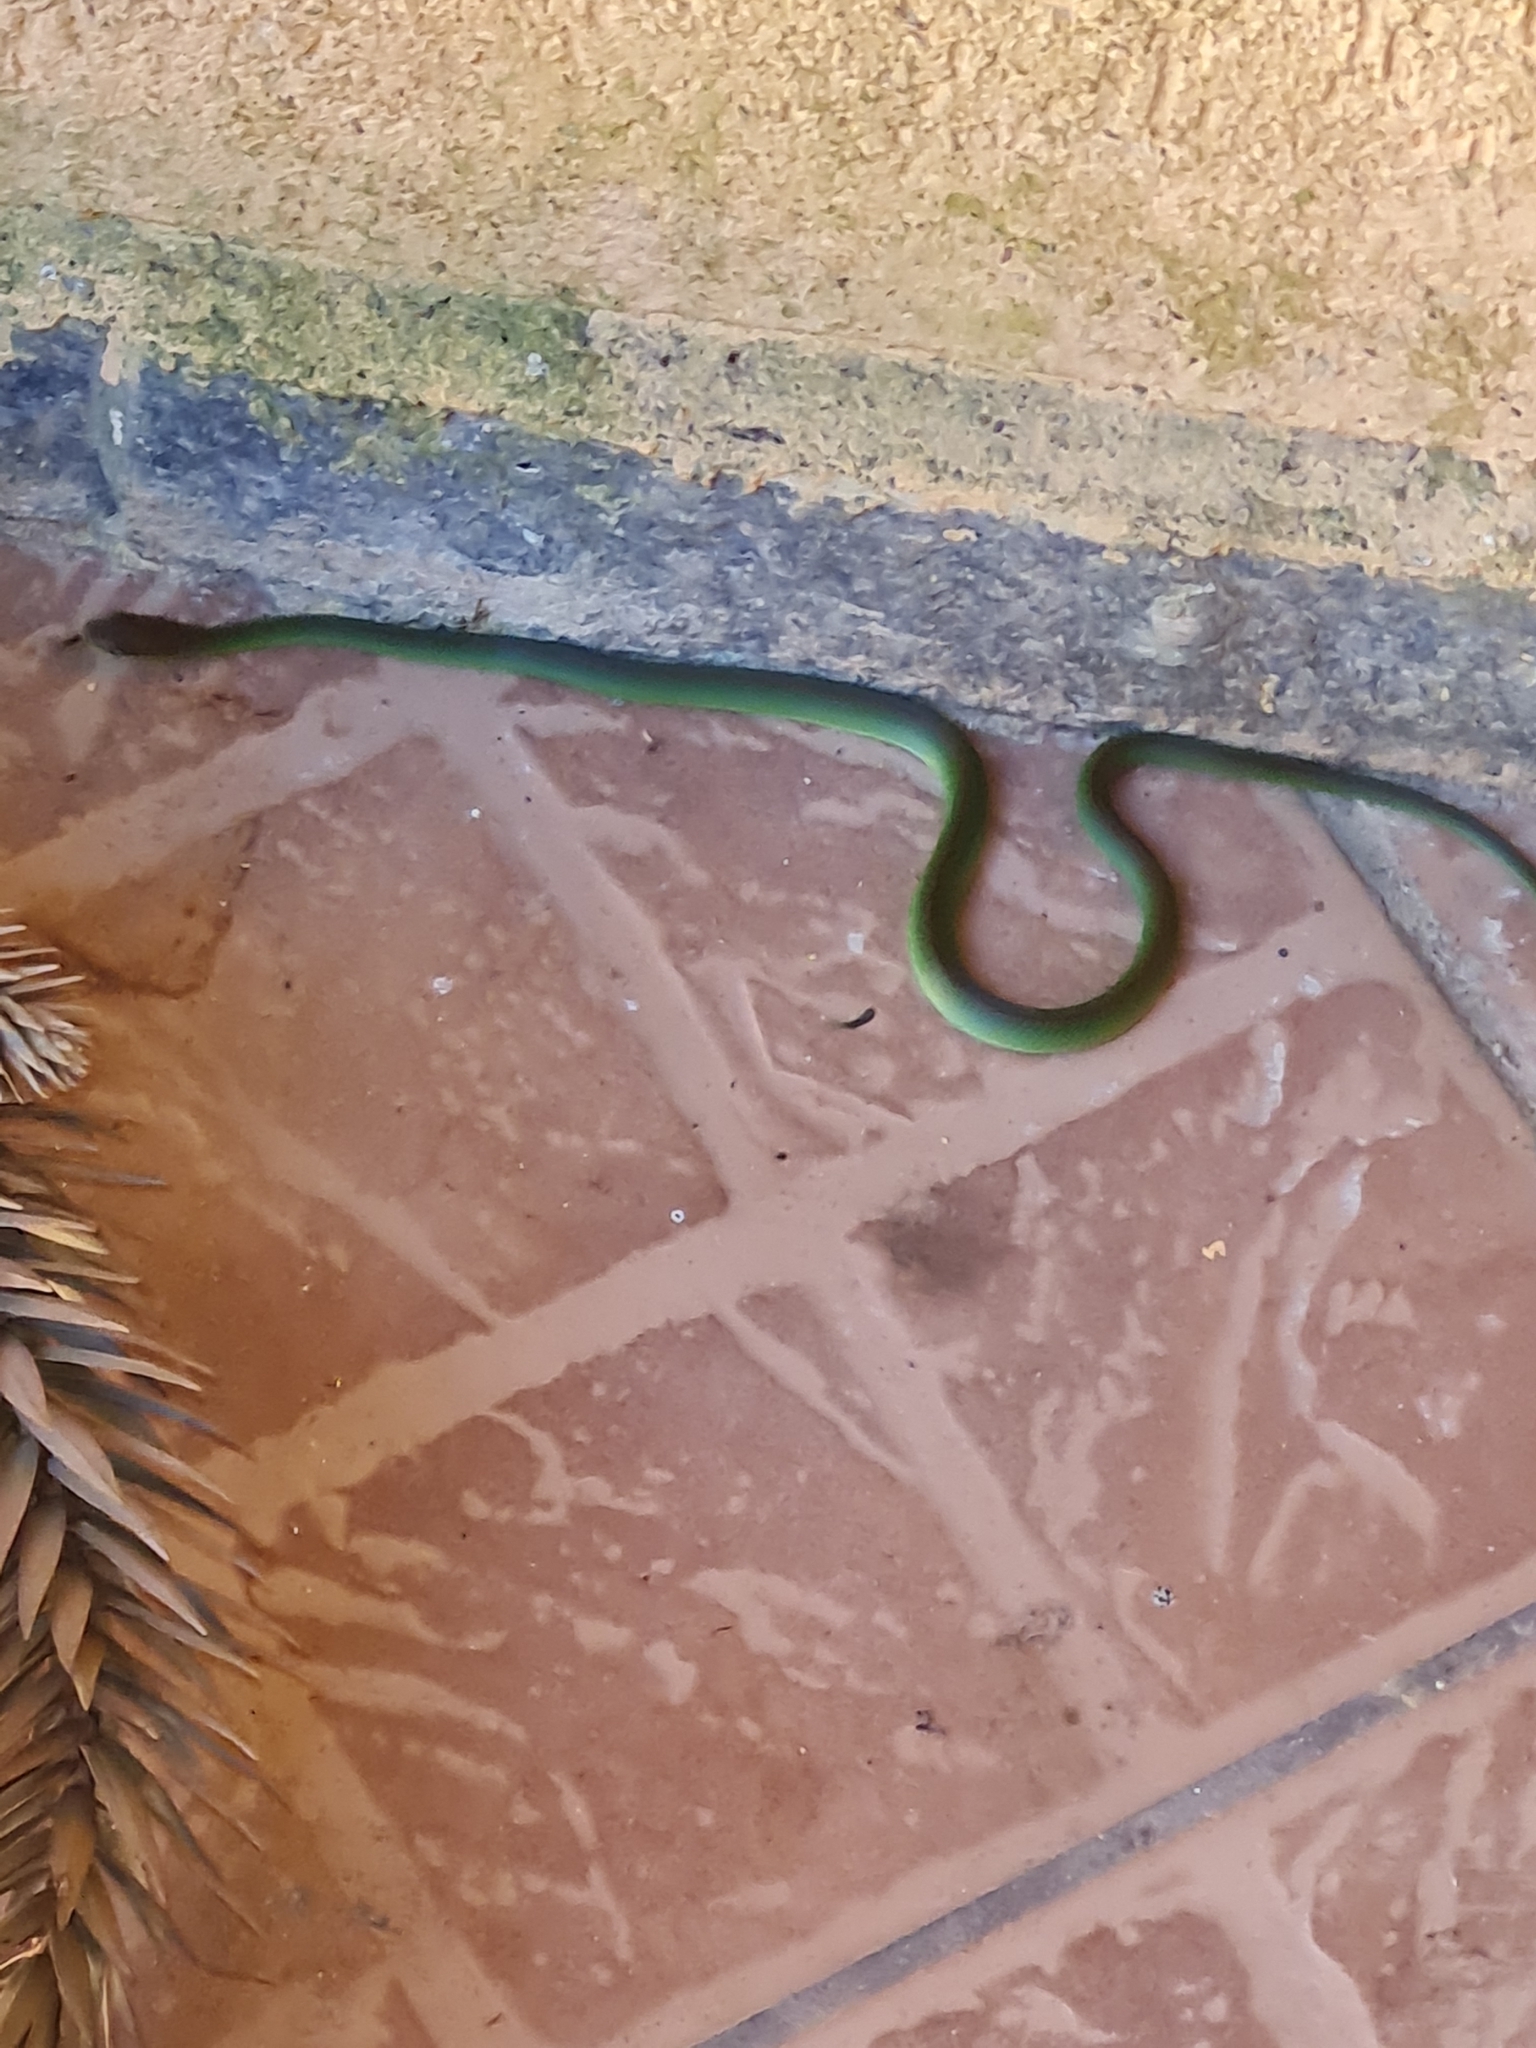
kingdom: Animalia
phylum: Chordata
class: Squamata
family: Colubridae
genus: Philodryas
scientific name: Philodryas olfersii
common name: Lichtenstein's green racer
